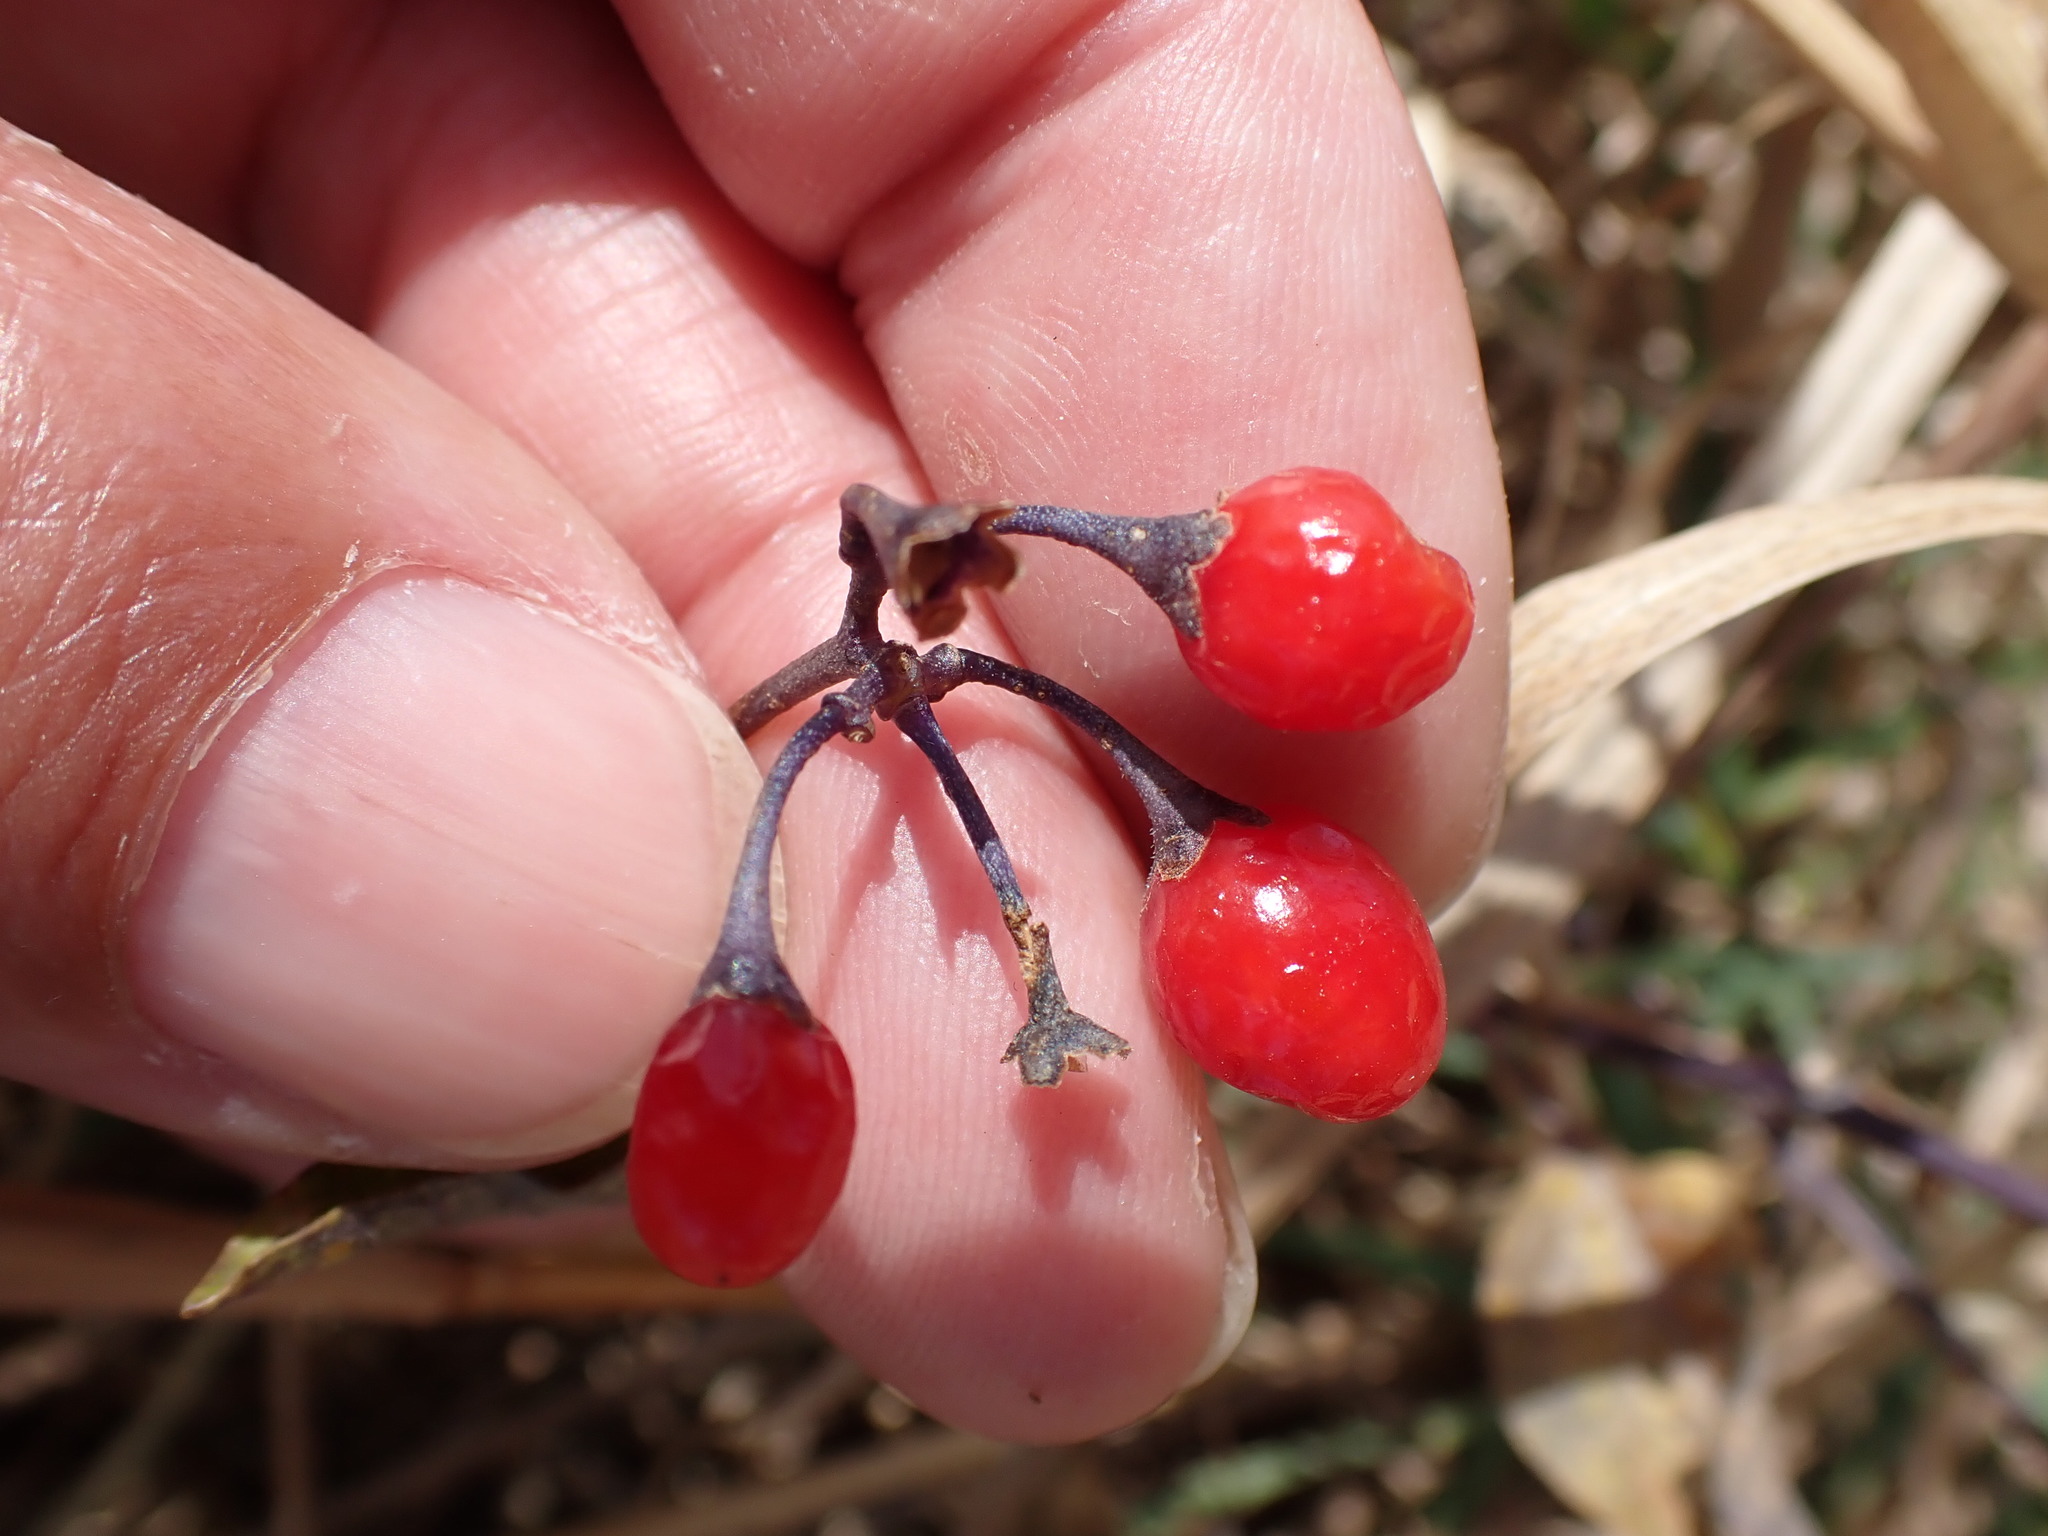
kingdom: Plantae
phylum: Tracheophyta
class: Magnoliopsida
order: Solanales
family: Solanaceae
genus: Solanum
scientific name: Solanum dulcamara
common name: Climbing nightshade
